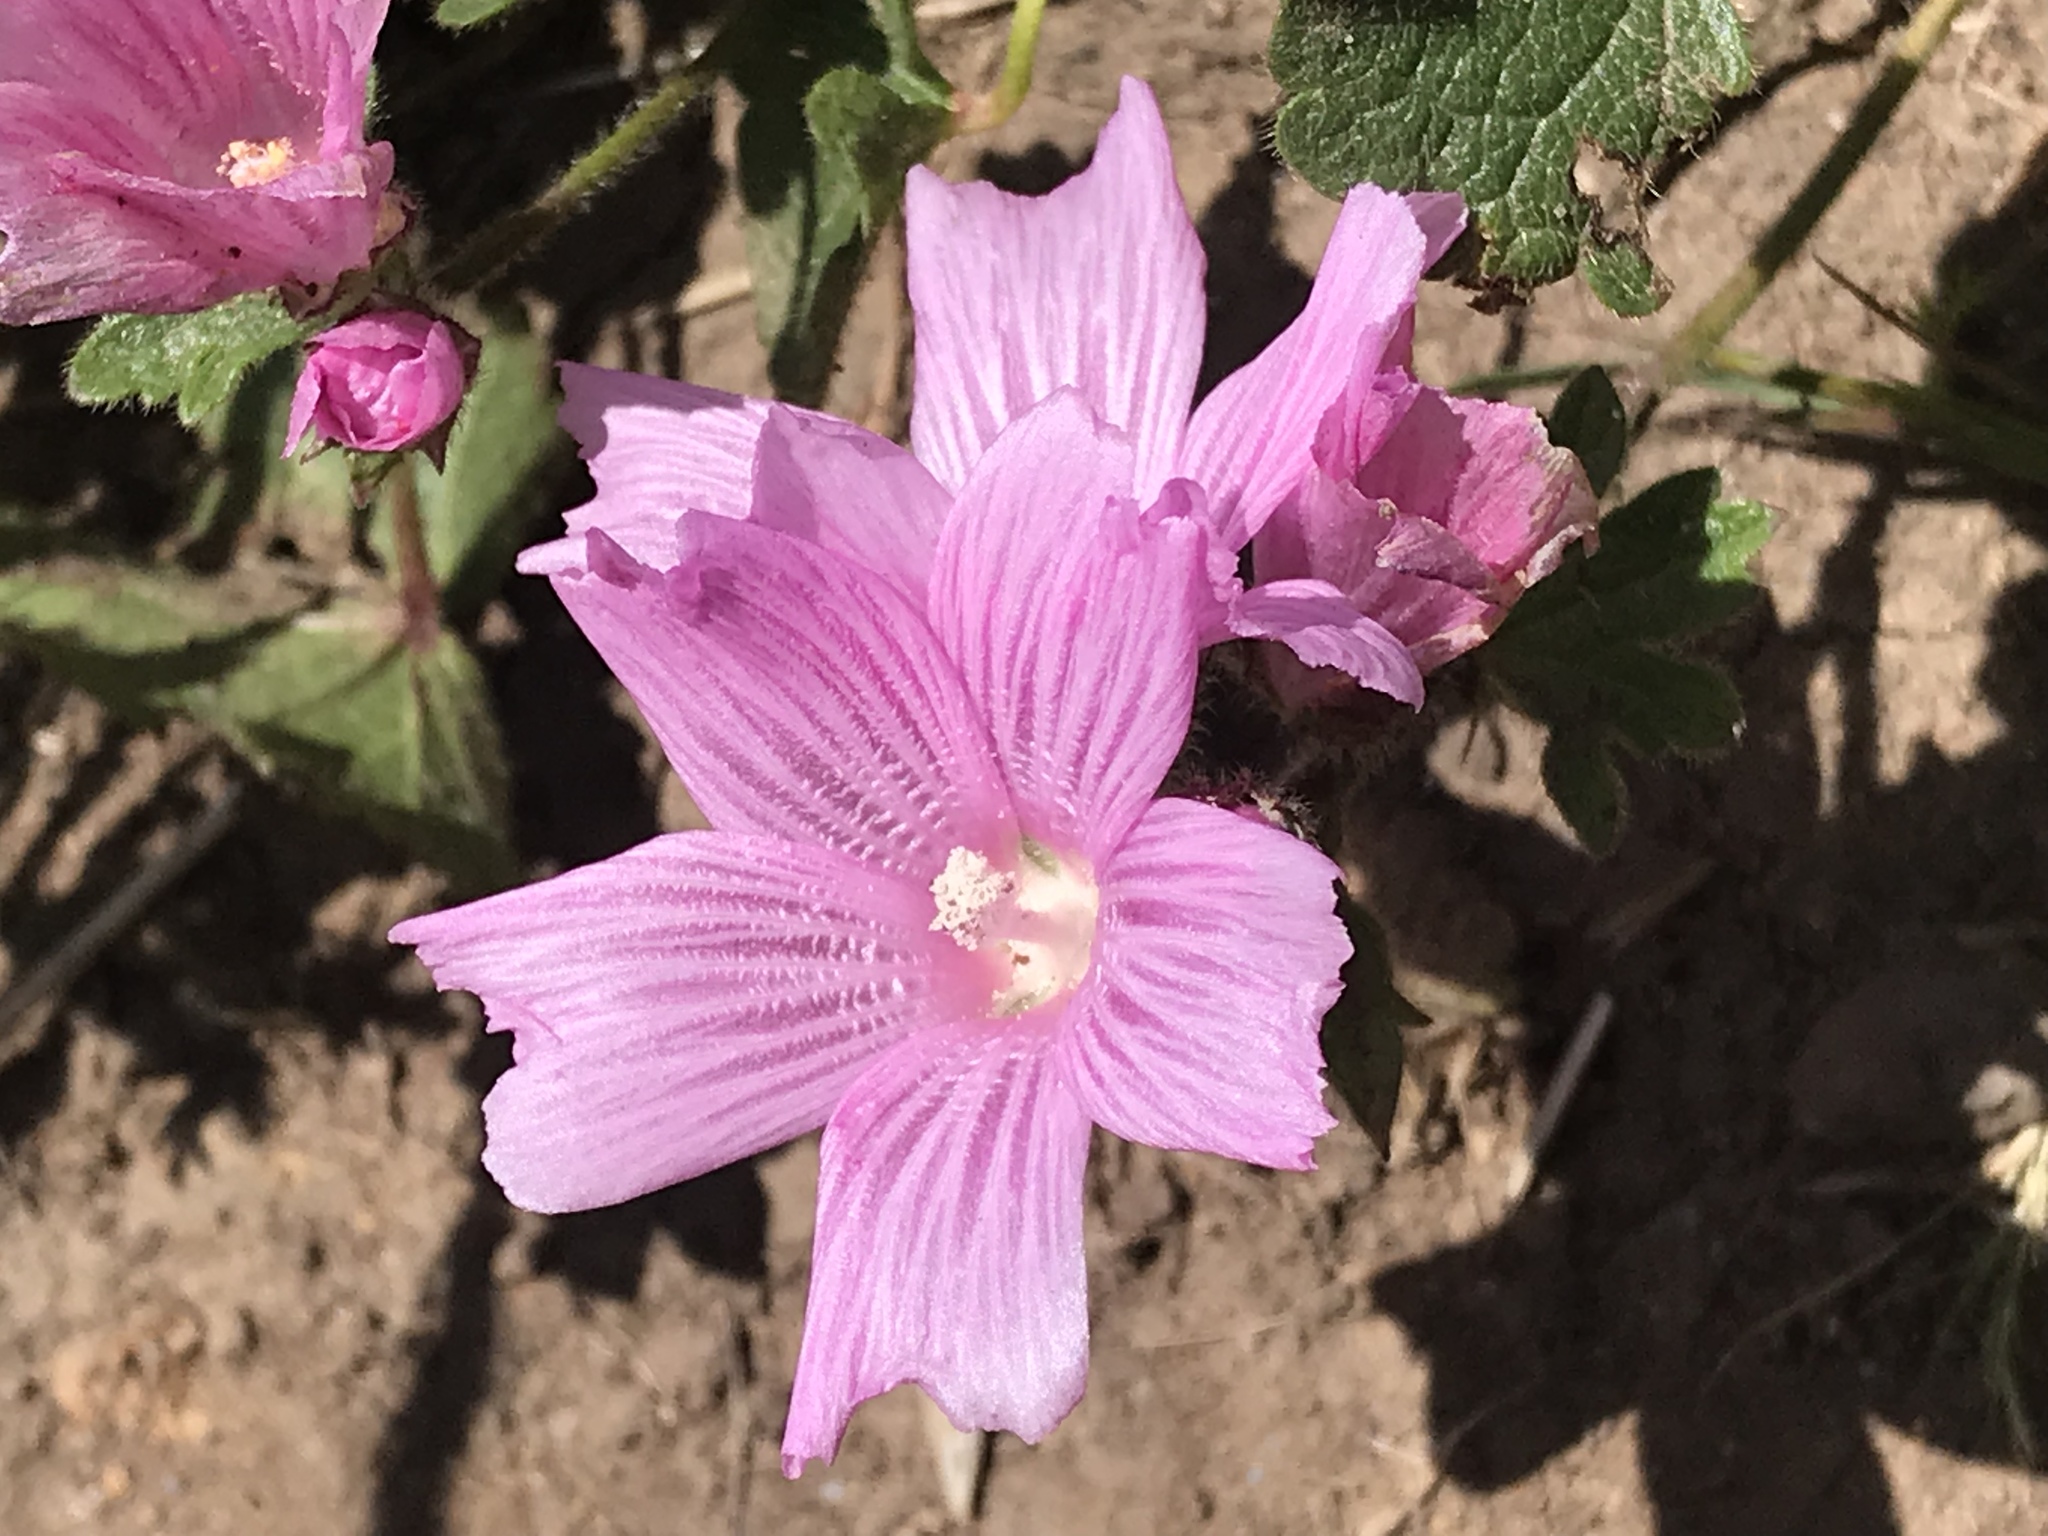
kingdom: Plantae
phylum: Tracheophyta
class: Magnoliopsida
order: Malvales
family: Malvaceae
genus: Sidalcea
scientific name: Sidalcea malviflora
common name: Greek mallow
